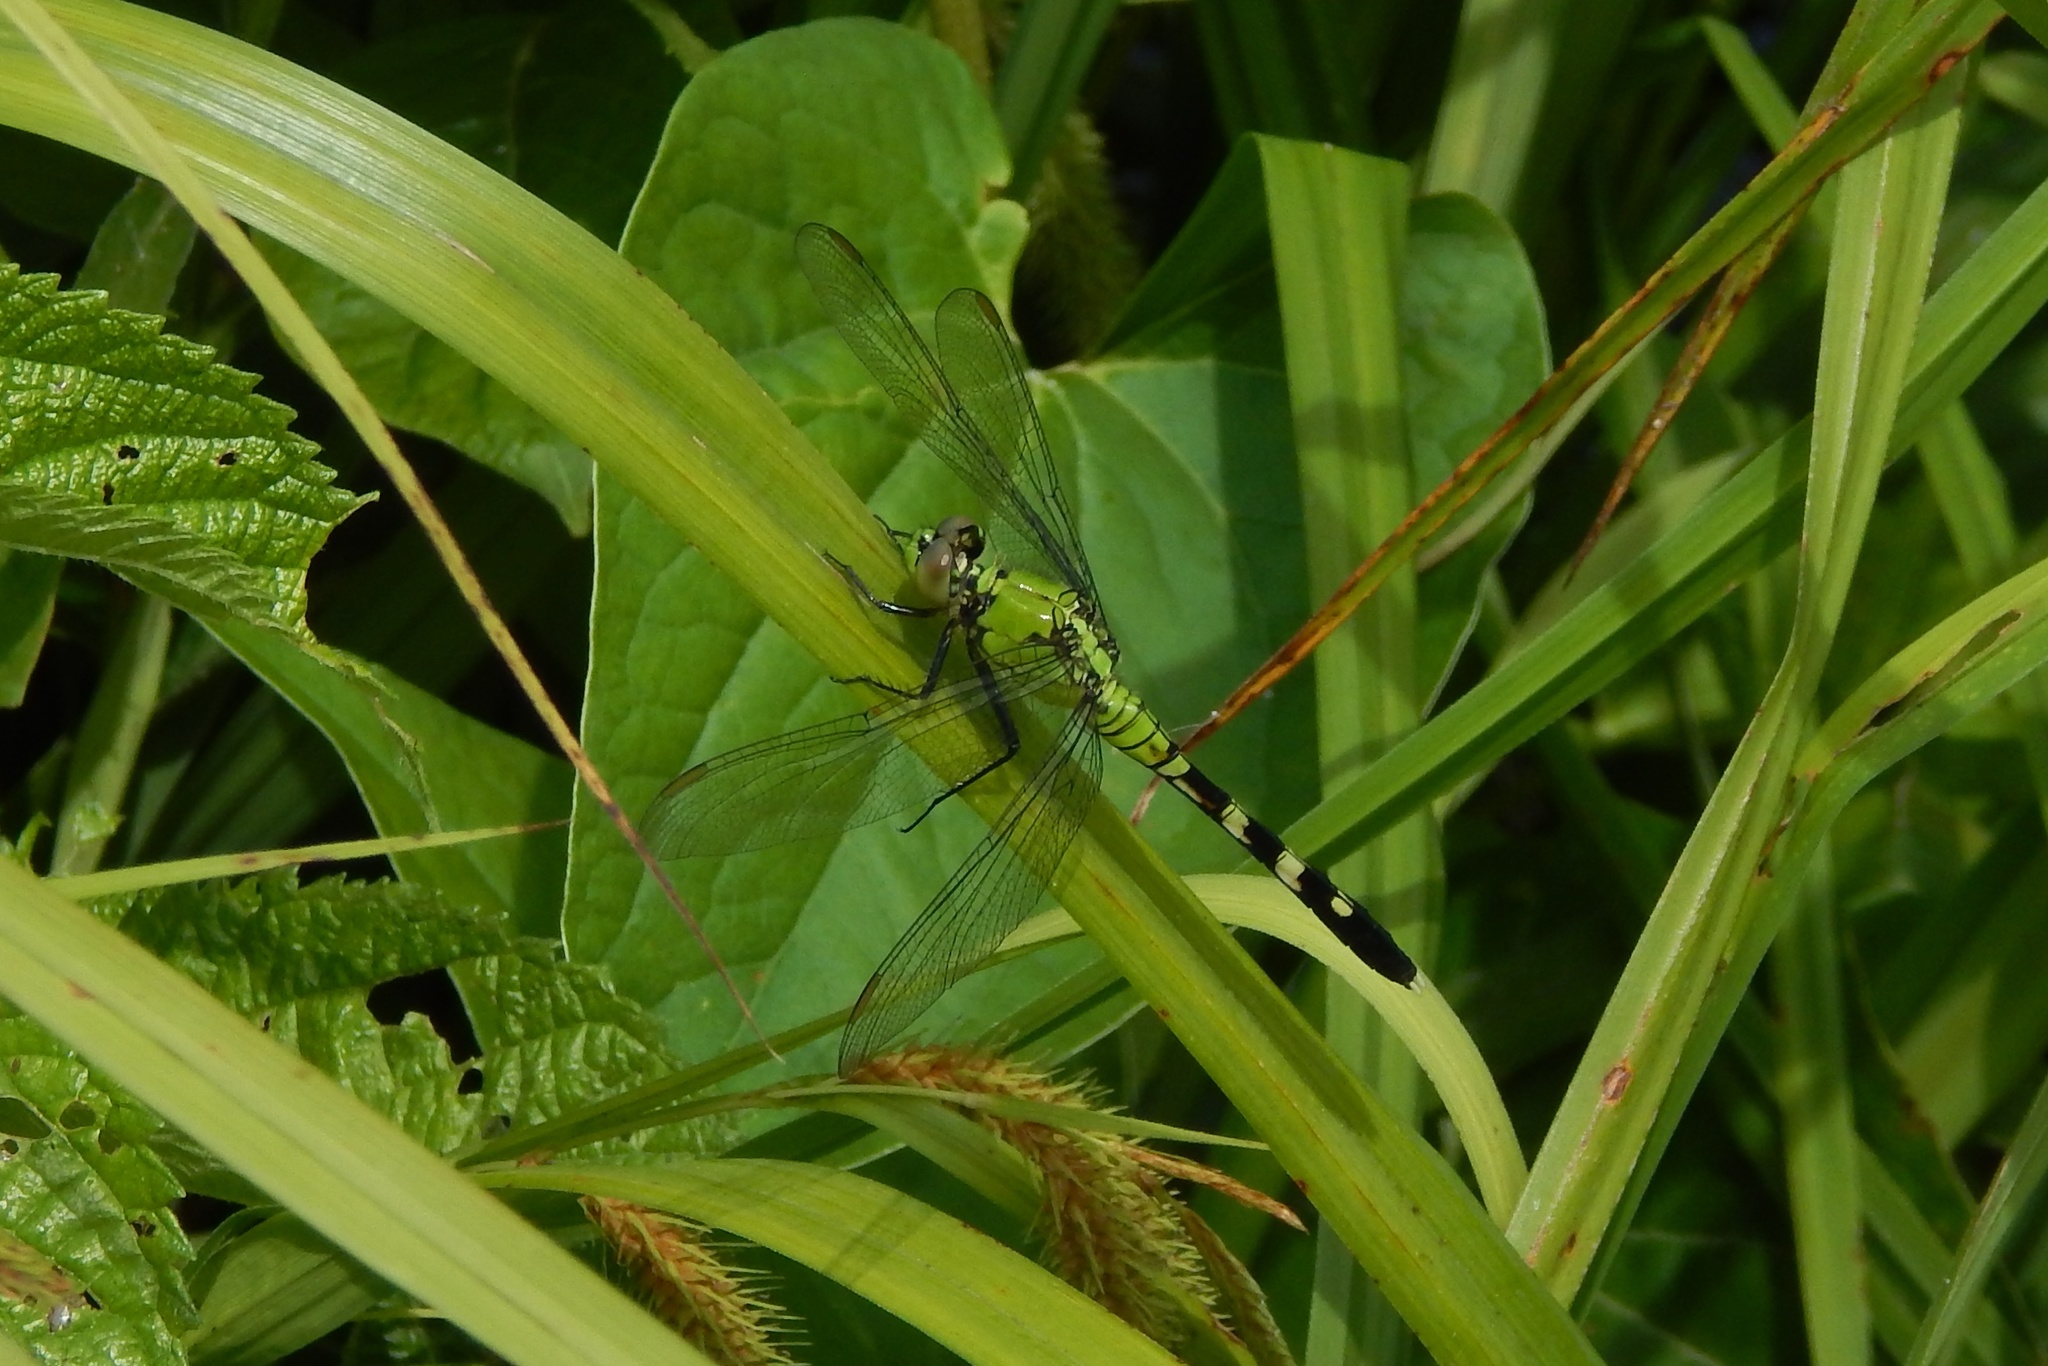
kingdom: Animalia
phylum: Arthropoda
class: Insecta
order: Odonata
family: Libellulidae
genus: Erythemis
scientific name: Erythemis simplicicollis
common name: Eastern pondhawk
